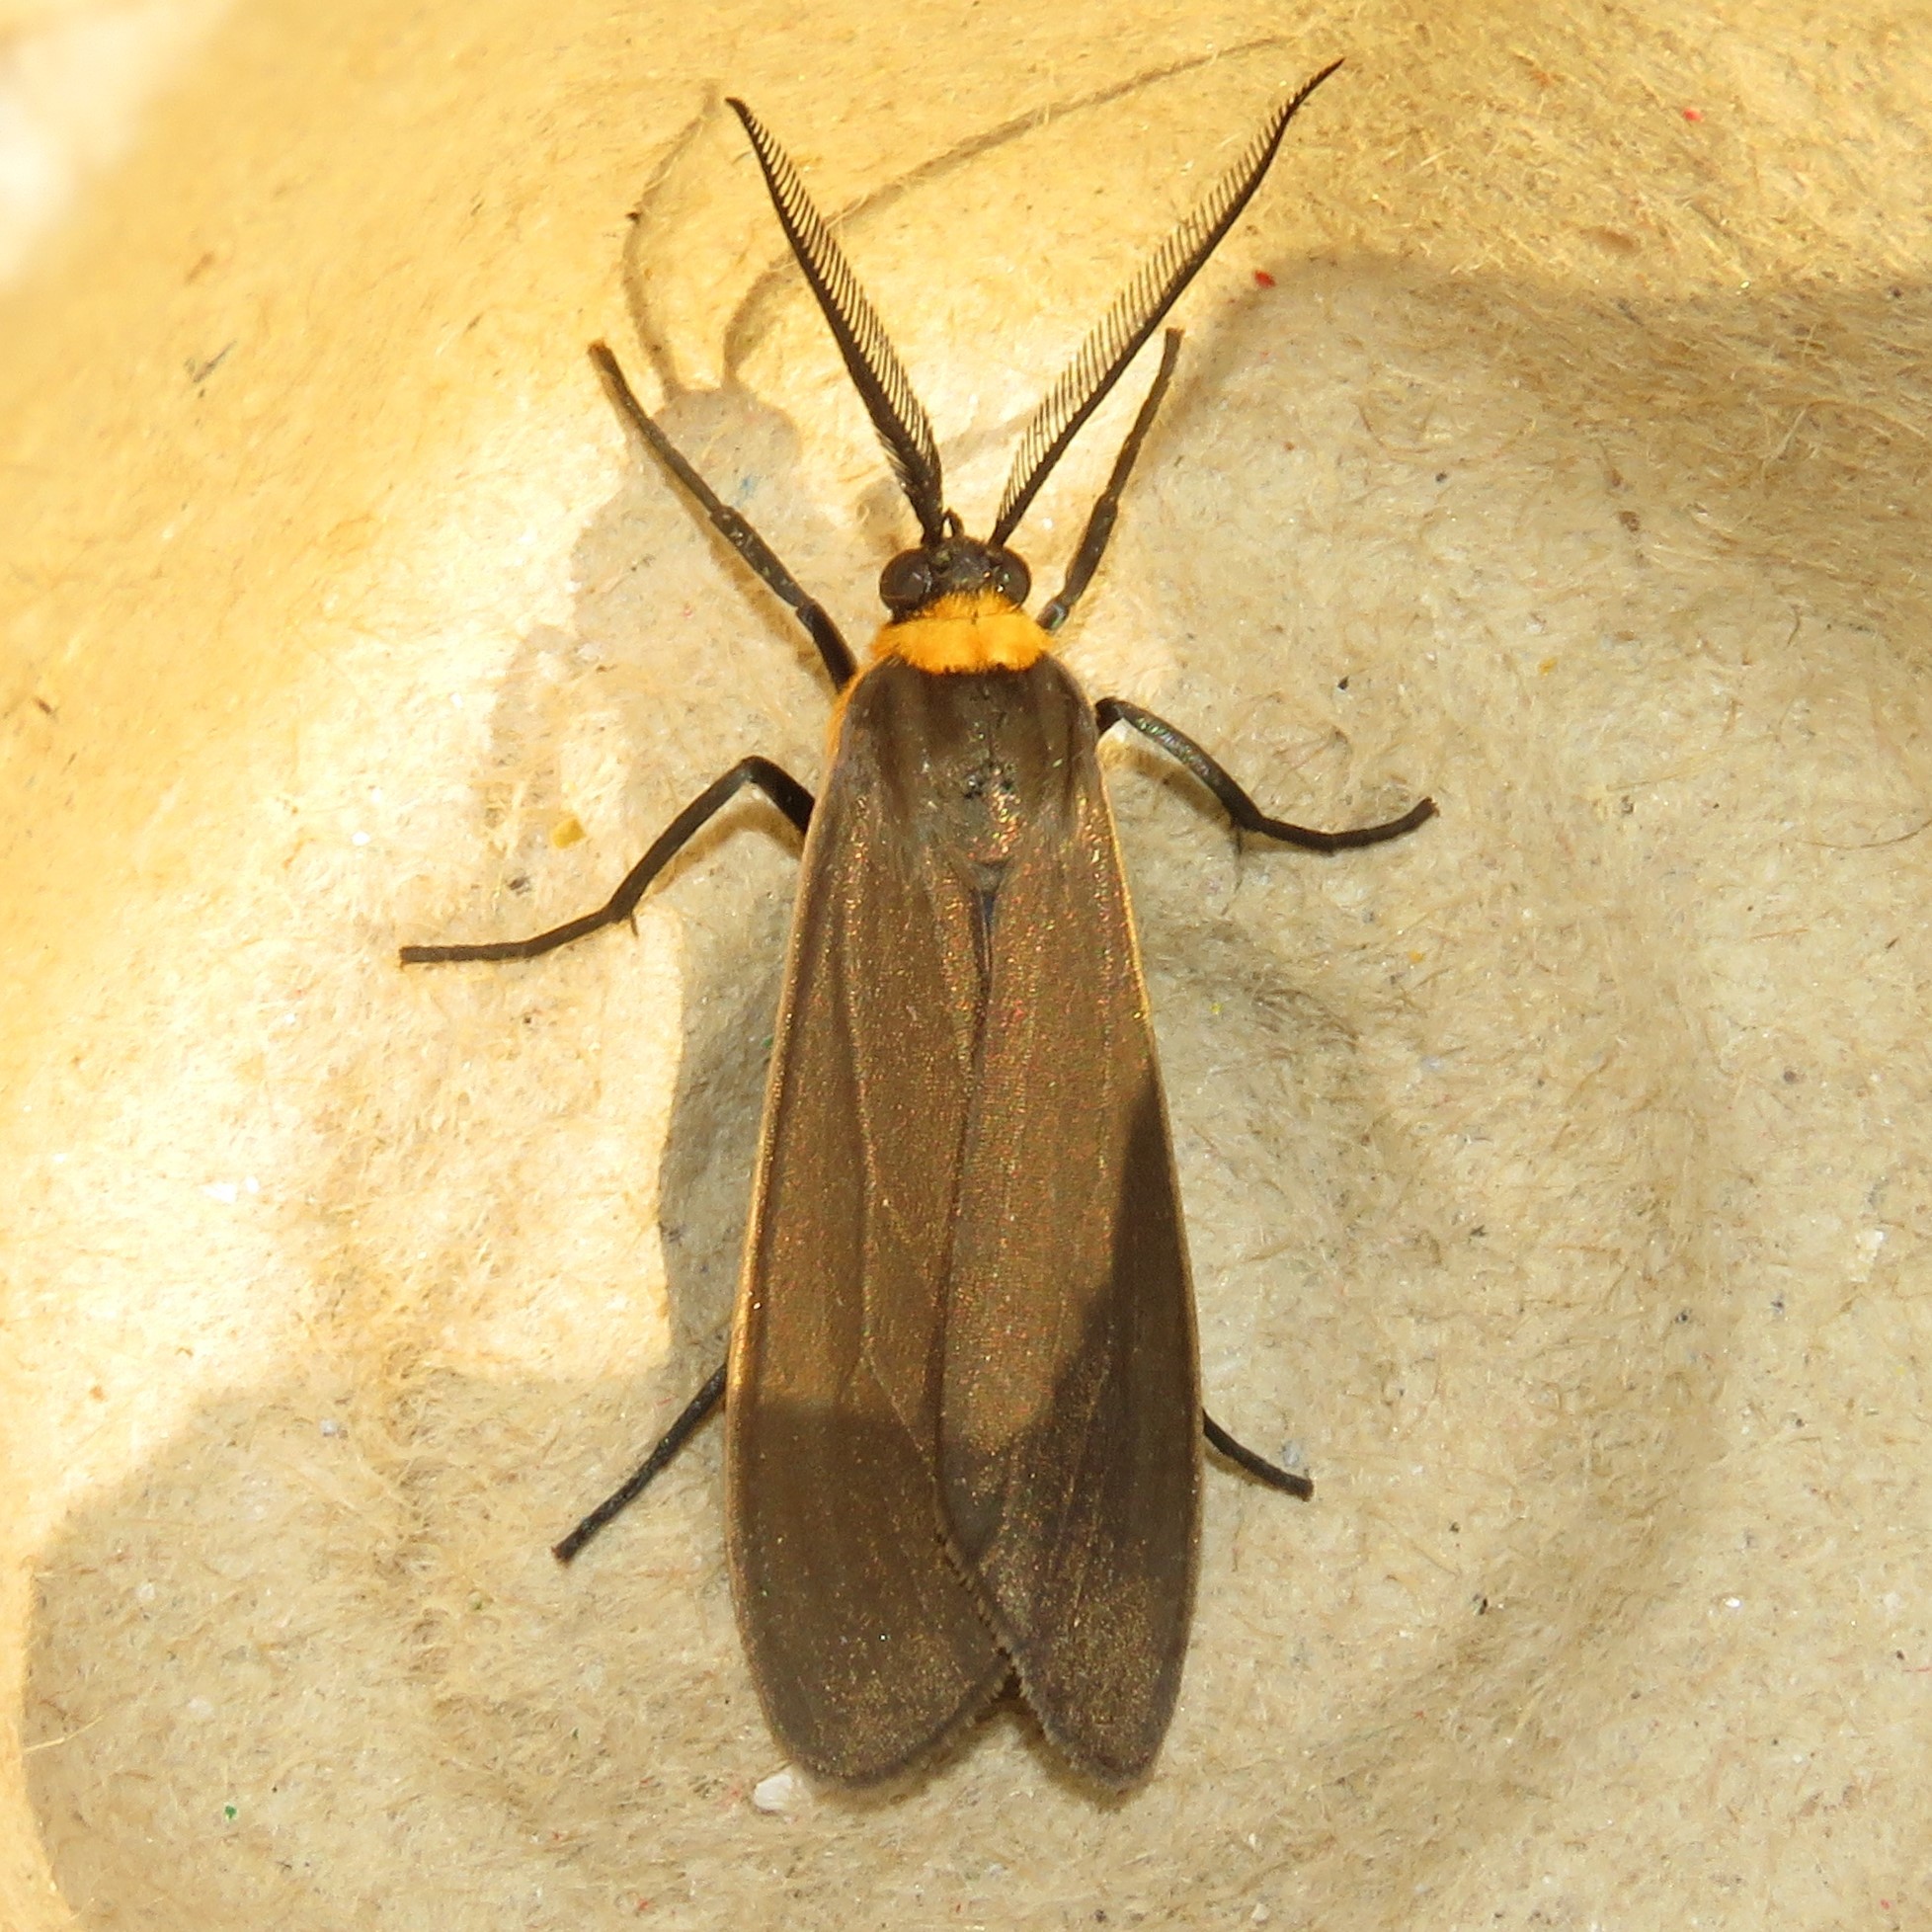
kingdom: Animalia
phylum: Arthropoda
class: Insecta
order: Lepidoptera
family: Erebidae
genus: Cisseps
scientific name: Cisseps fulvicollis
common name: Yellow-collared scape moth
